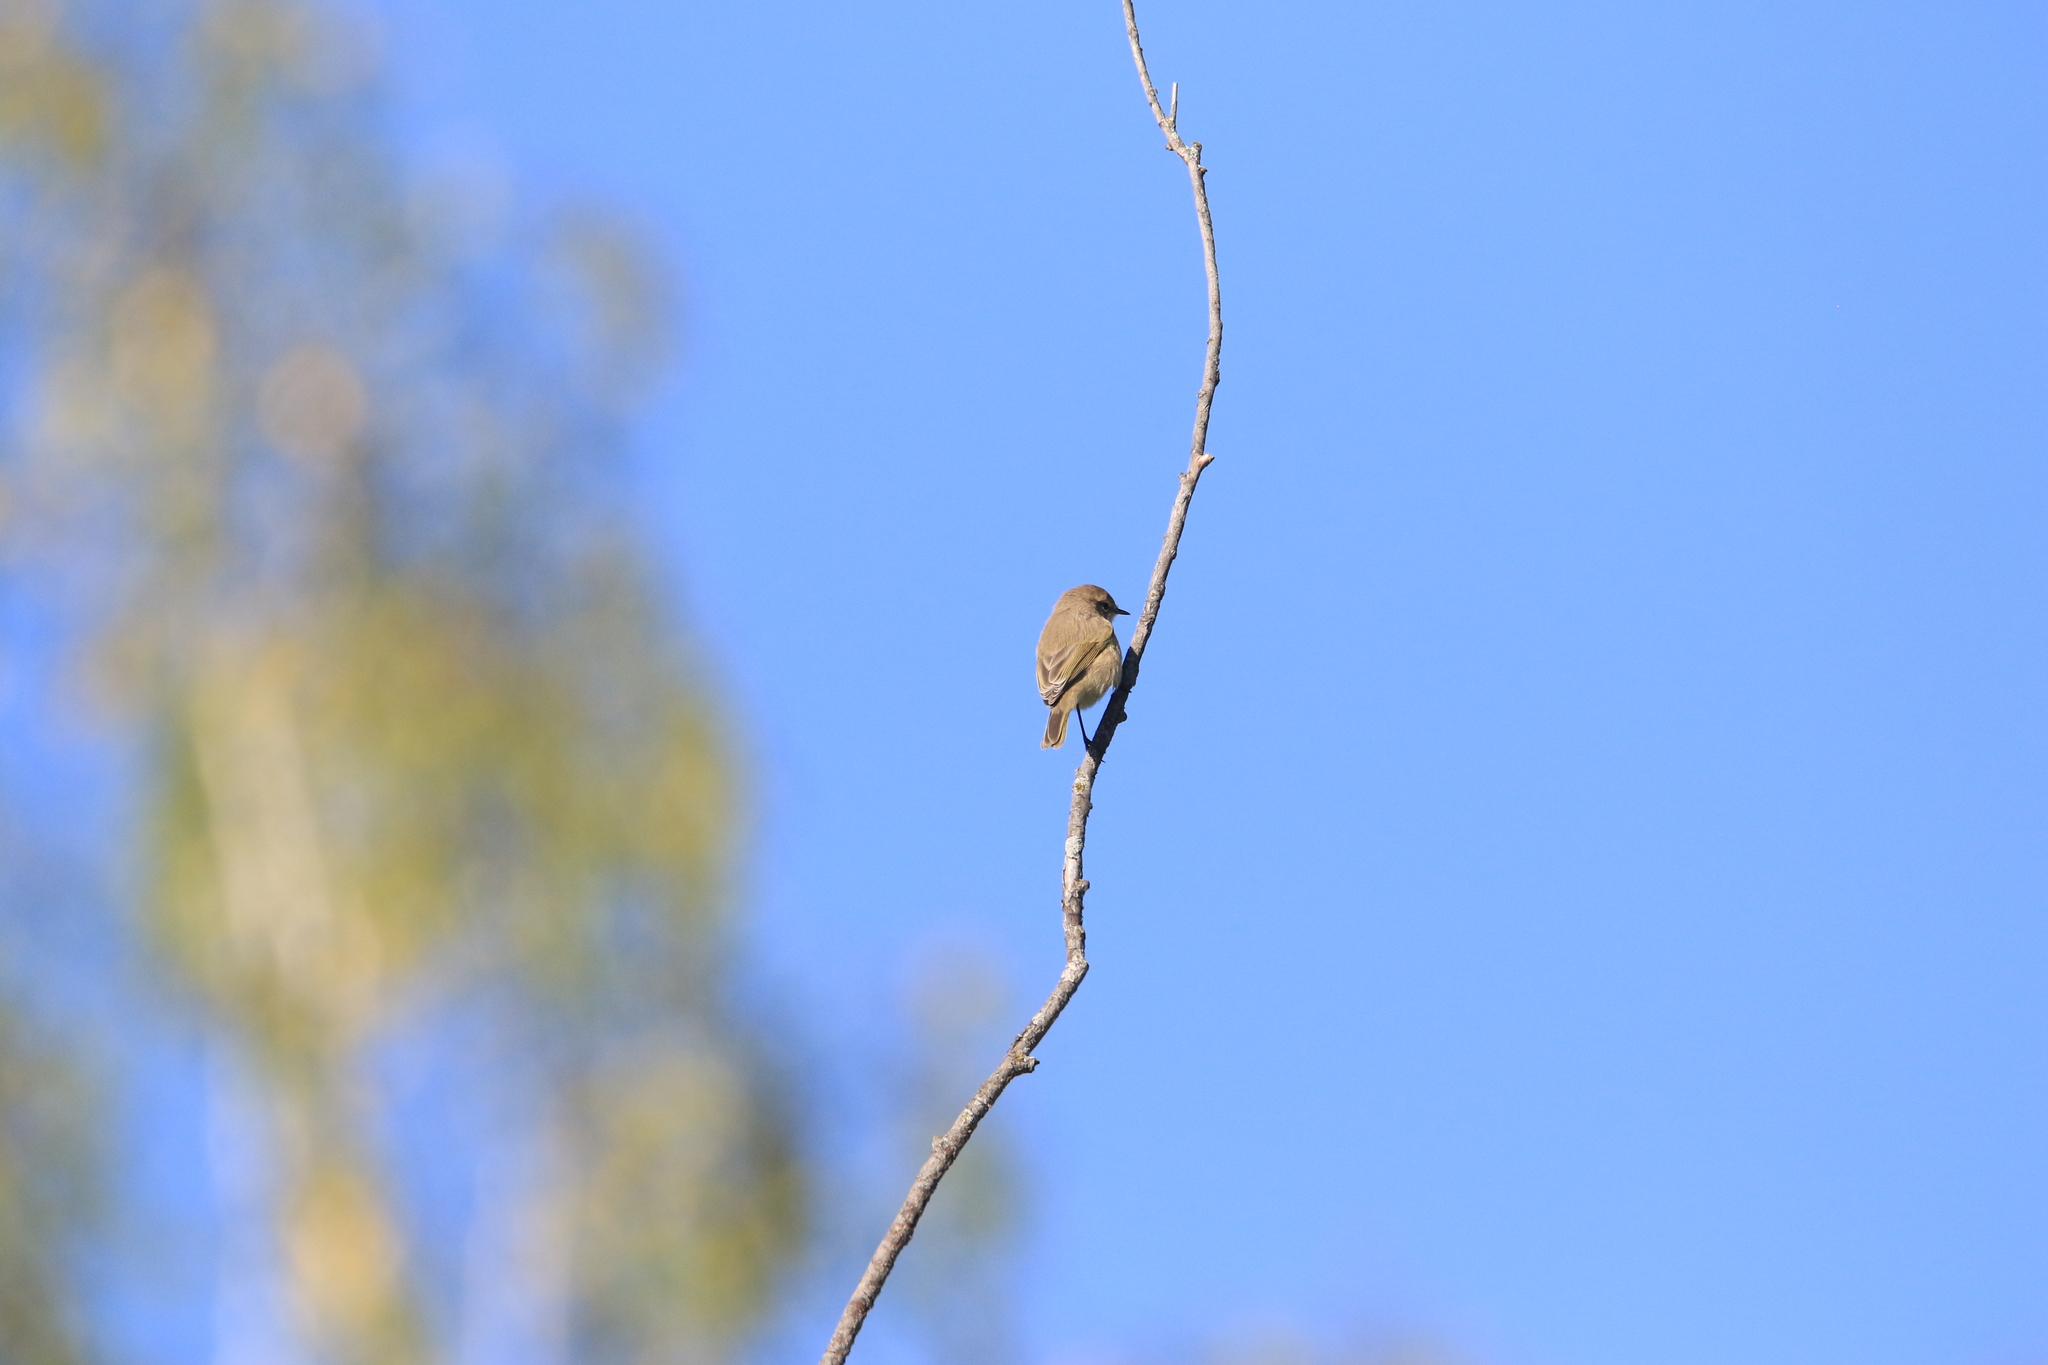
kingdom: Animalia
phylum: Chordata
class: Aves
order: Passeriformes
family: Phylloscopidae
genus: Phylloscopus
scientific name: Phylloscopus collybita
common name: Common chiffchaff
